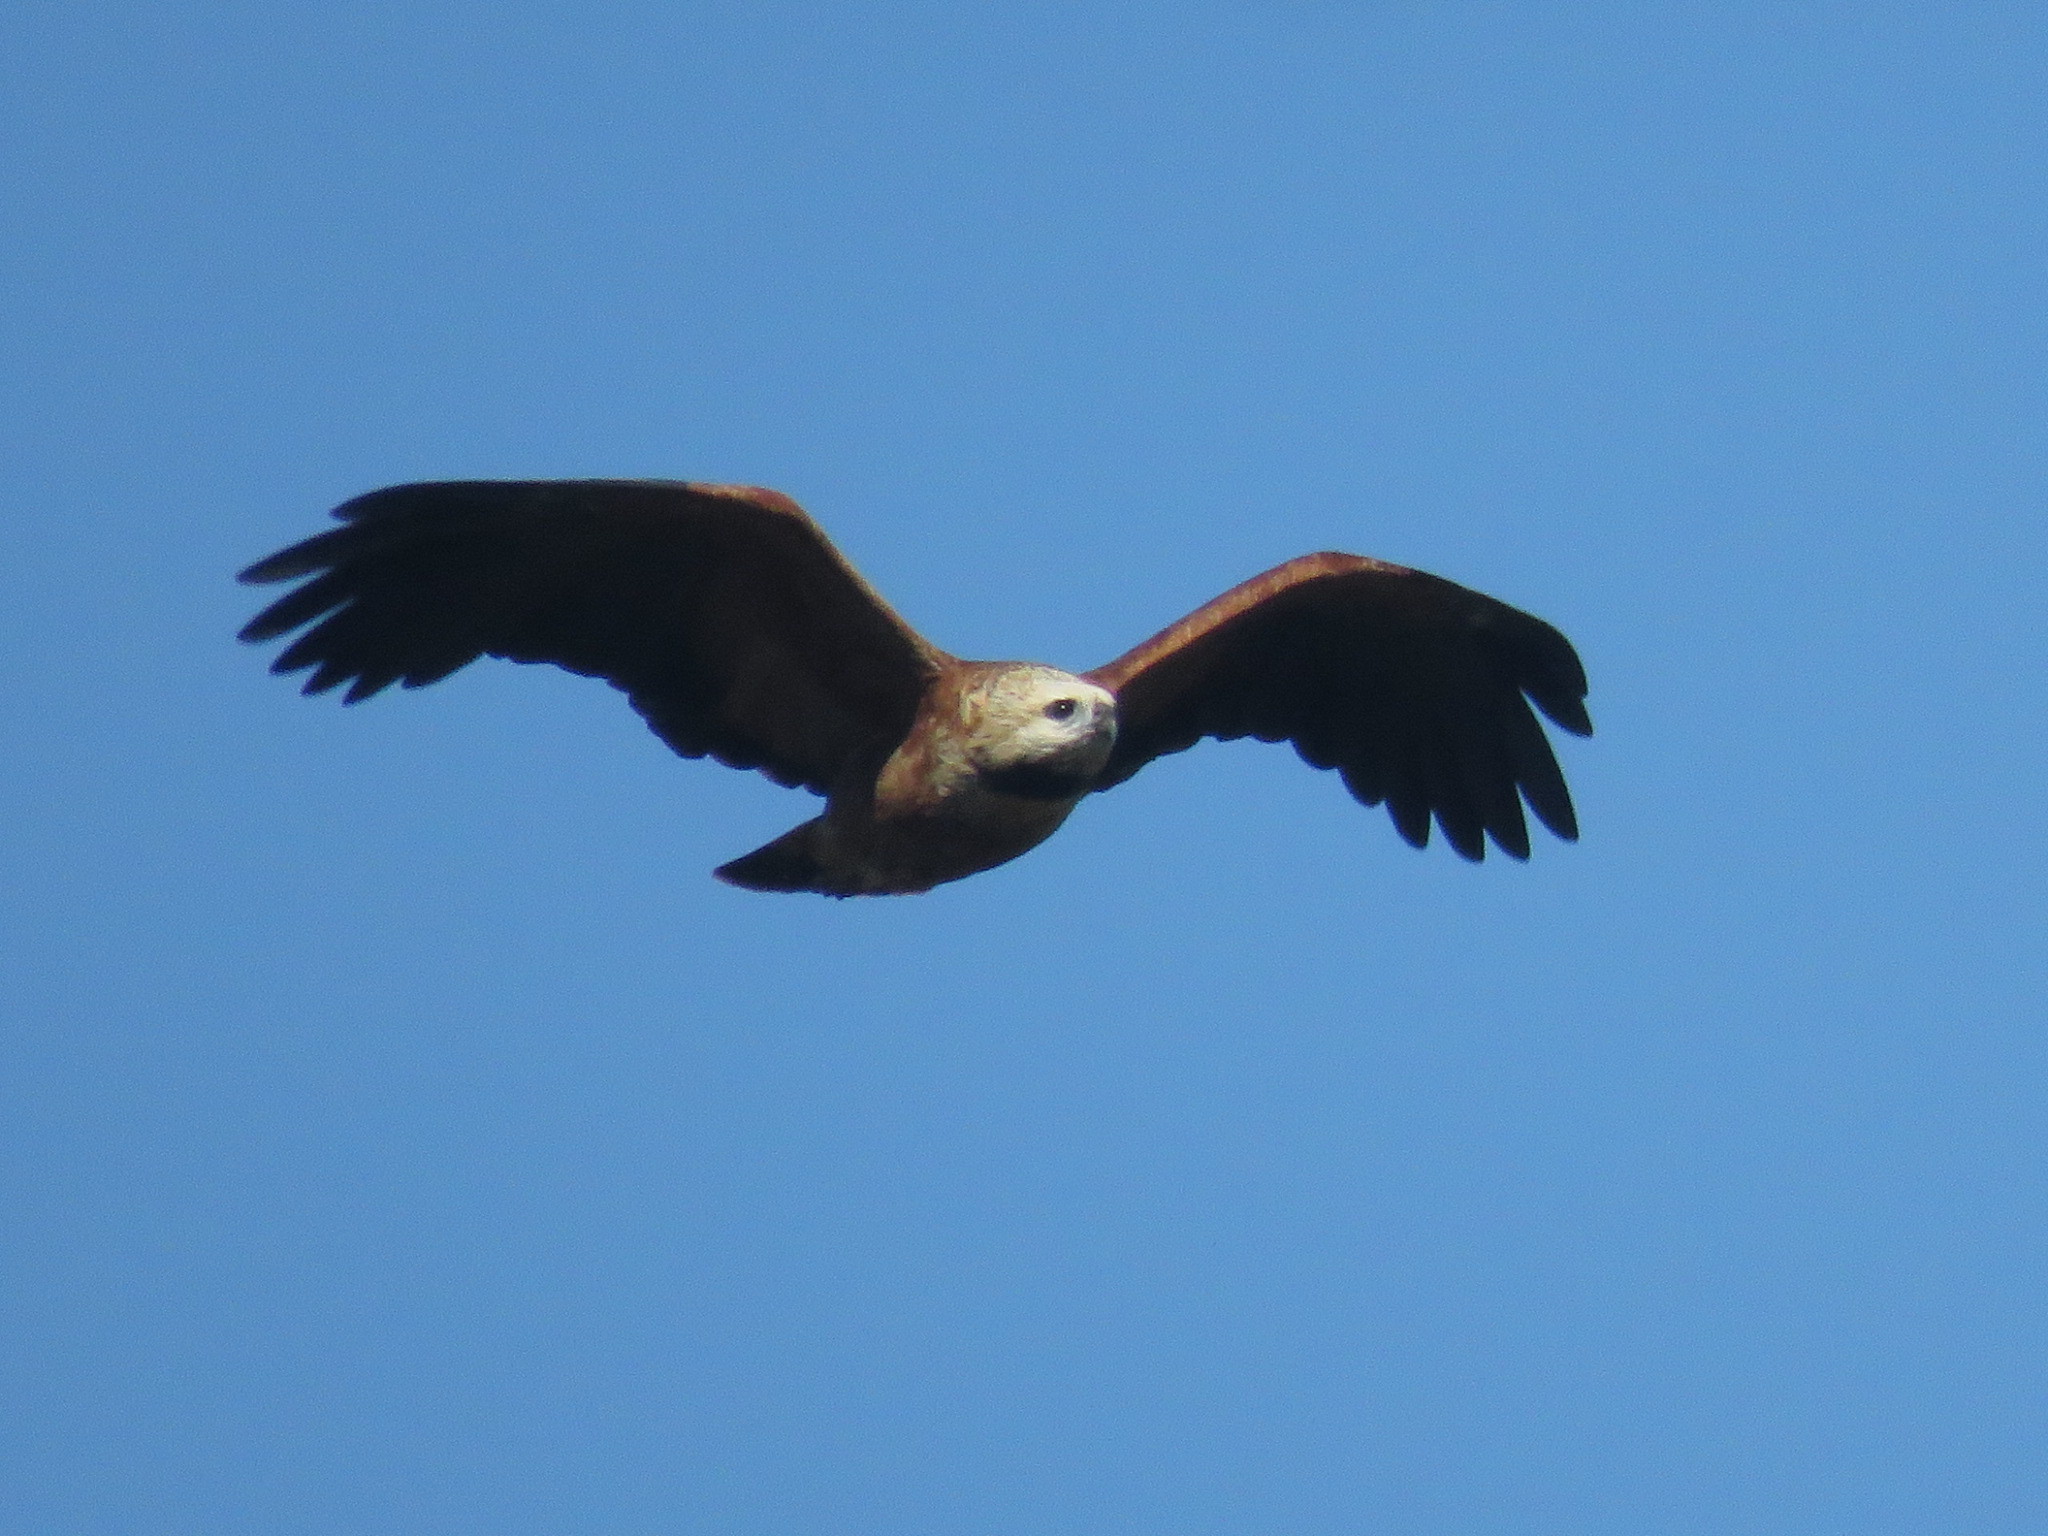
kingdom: Animalia
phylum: Chordata
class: Aves
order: Accipitriformes
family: Accipitridae
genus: Busarellus
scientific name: Busarellus nigricollis
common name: Black-collared hawk
